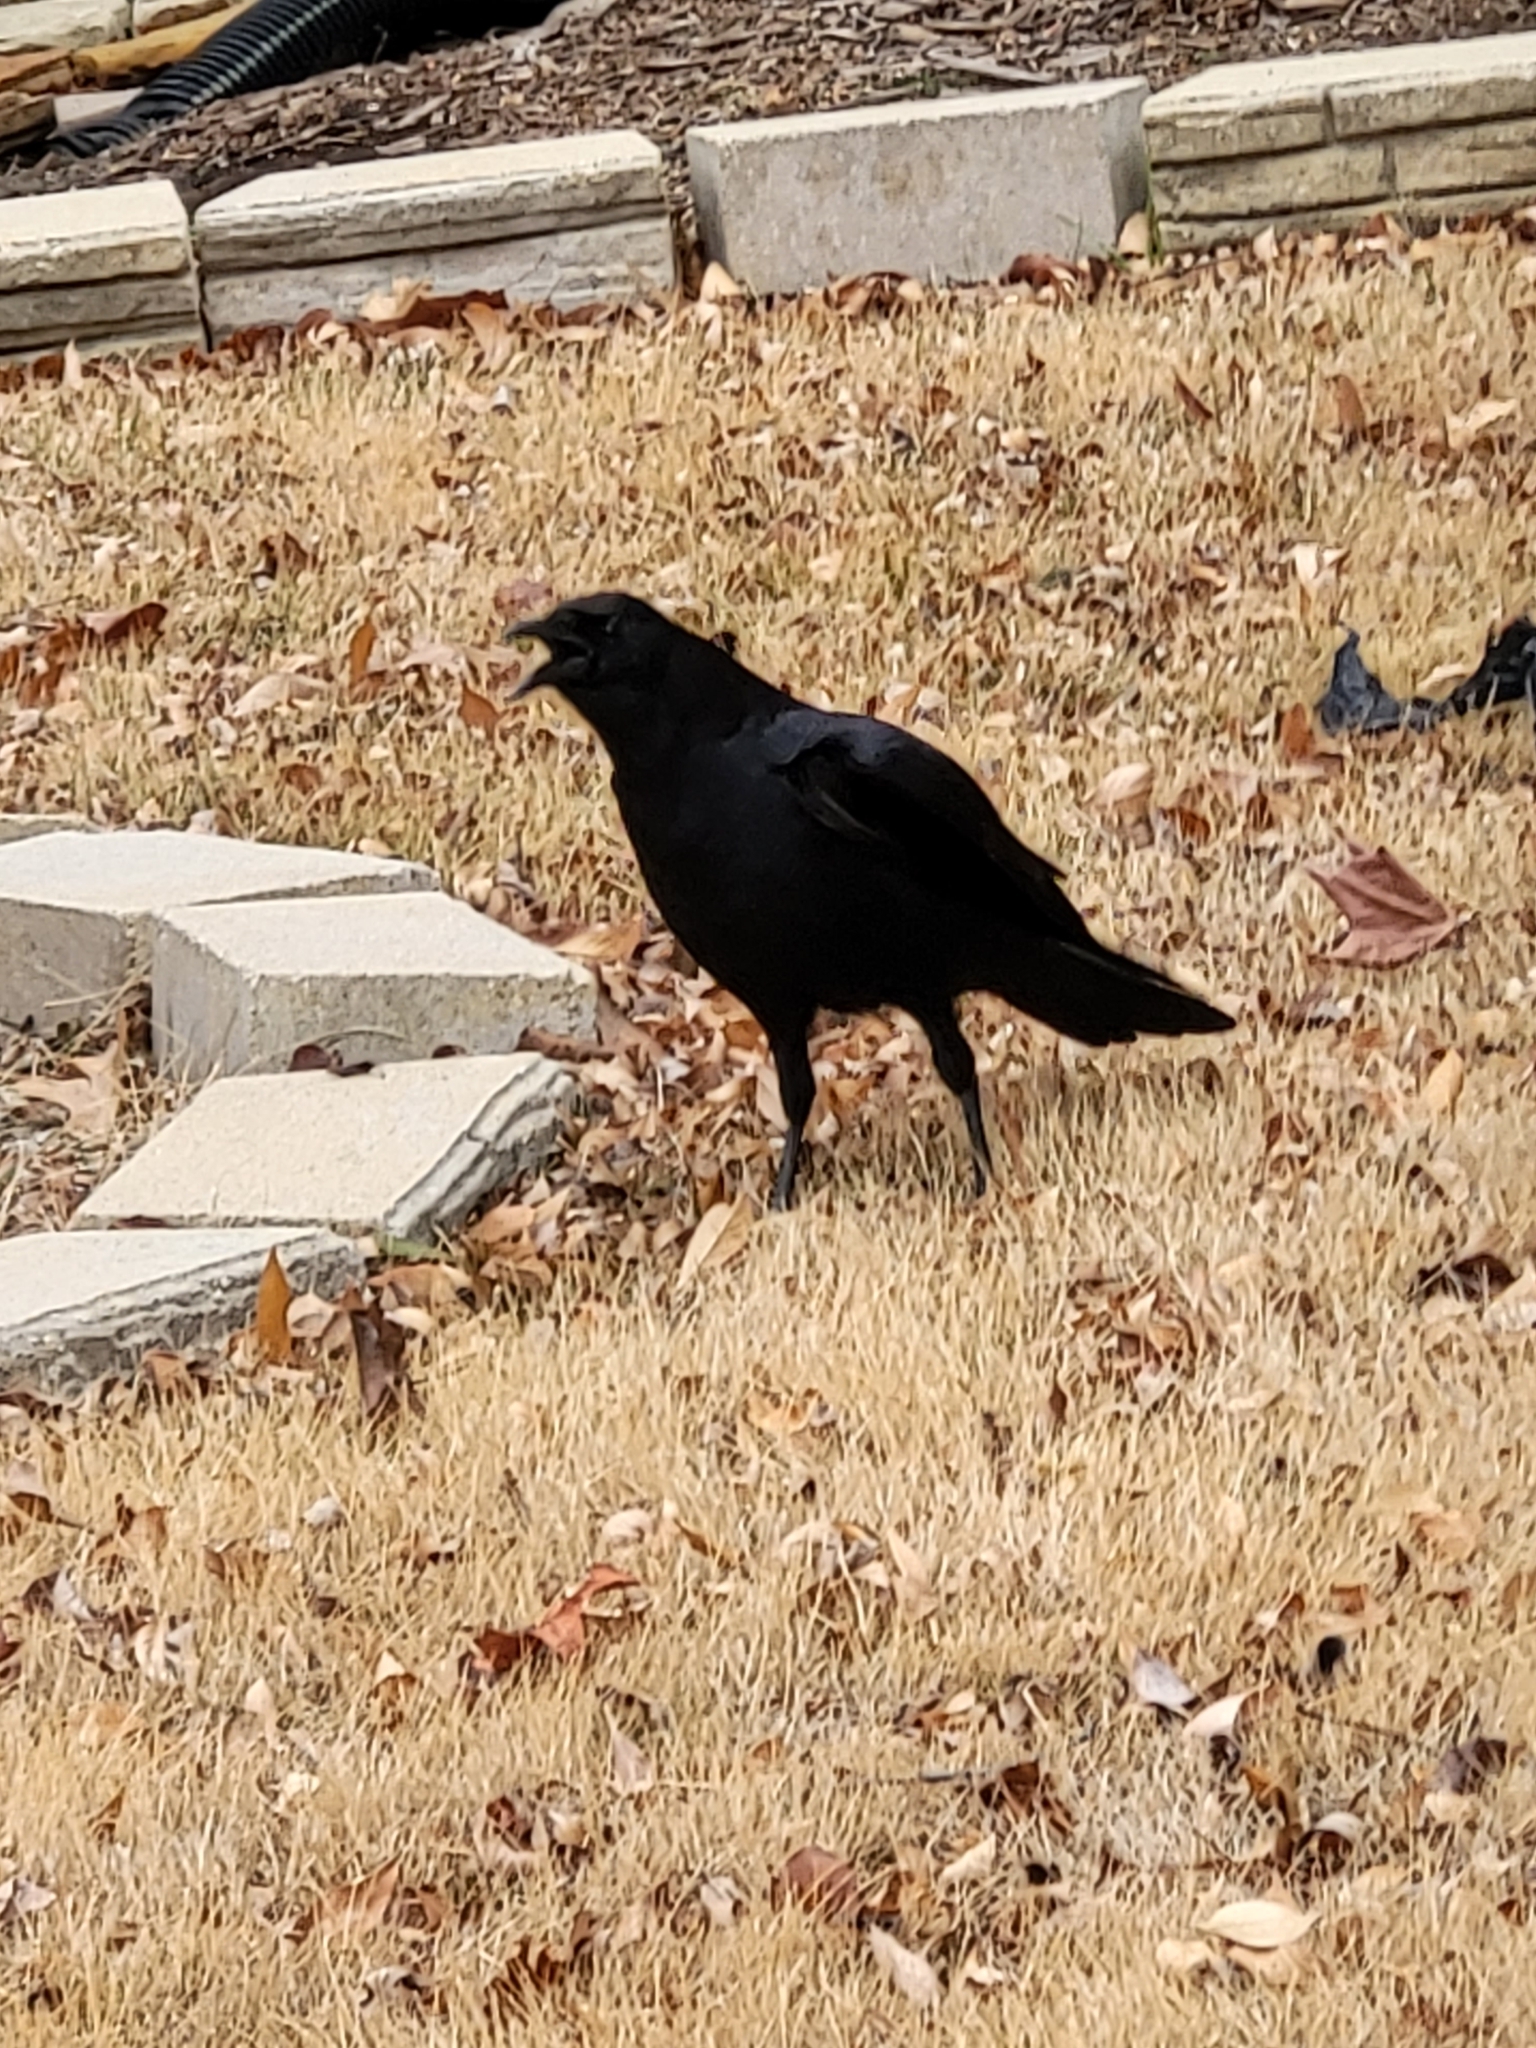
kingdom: Animalia
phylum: Chordata
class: Aves
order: Passeriformes
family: Corvidae
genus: Corvus
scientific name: Corvus brachyrhynchos
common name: American crow
